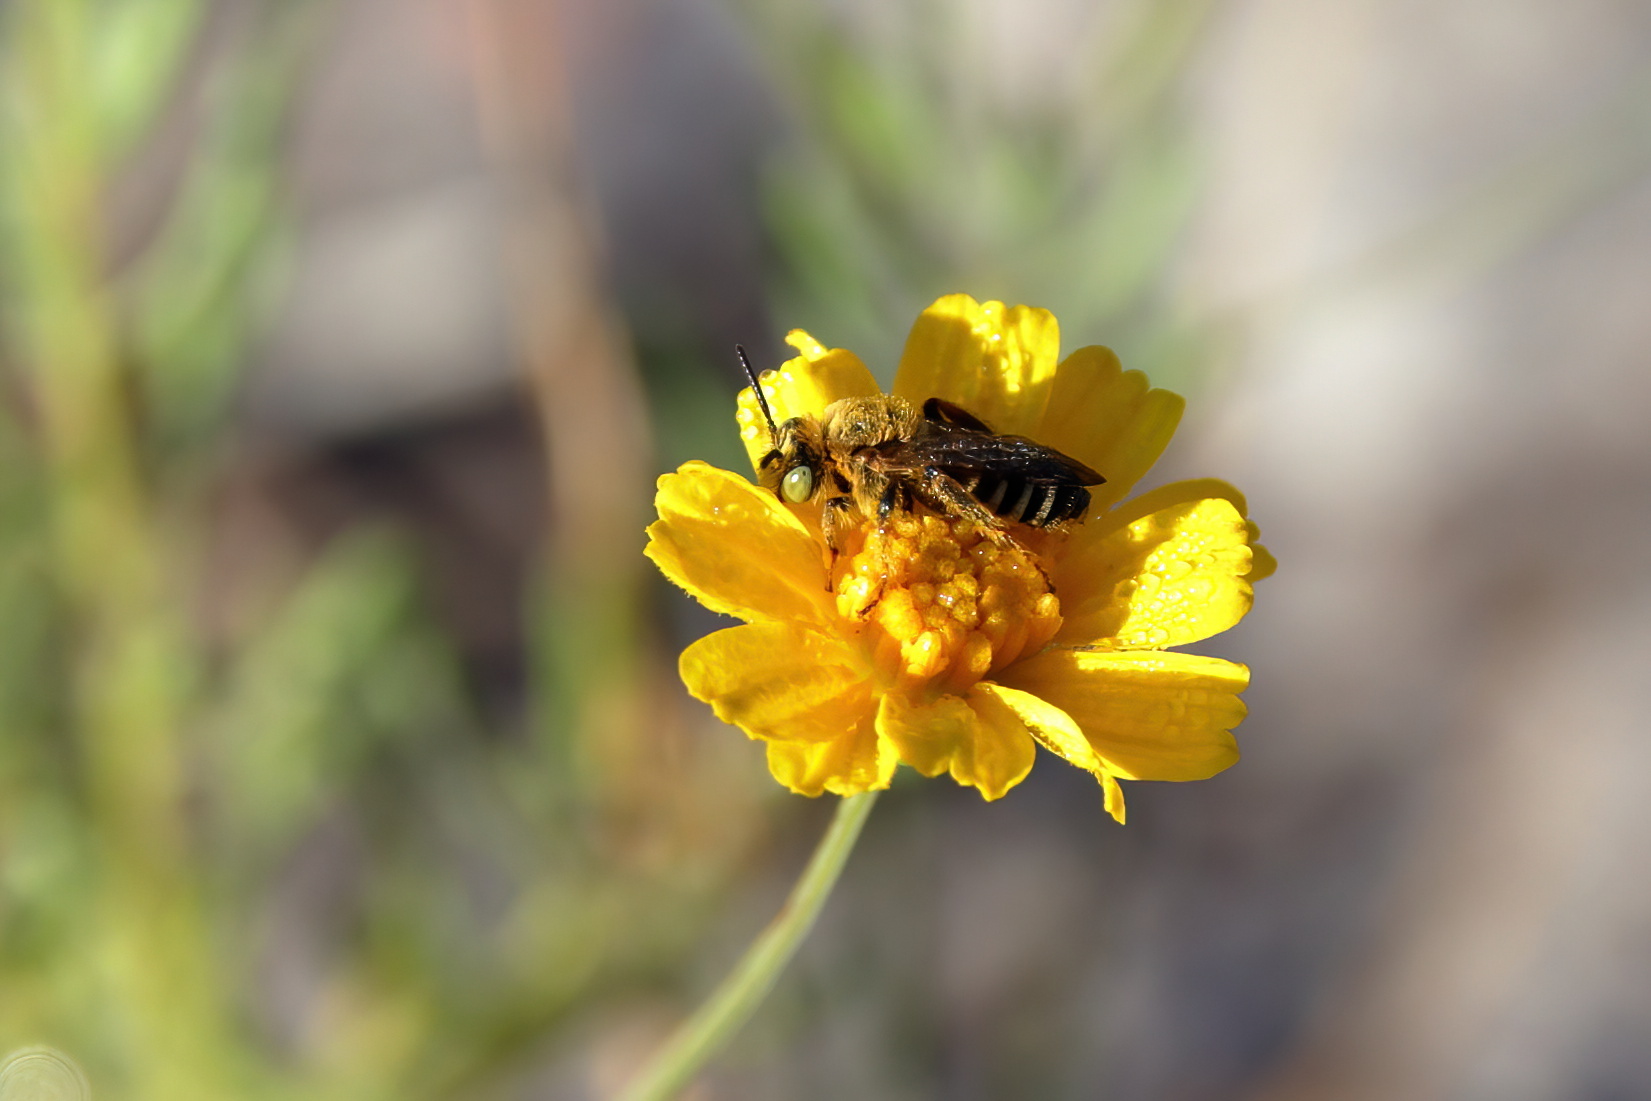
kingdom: Animalia
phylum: Arthropoda
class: Insecta
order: Hymenoptera
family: Melittidae
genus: Hesperapis
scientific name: Hesperapis oraria
